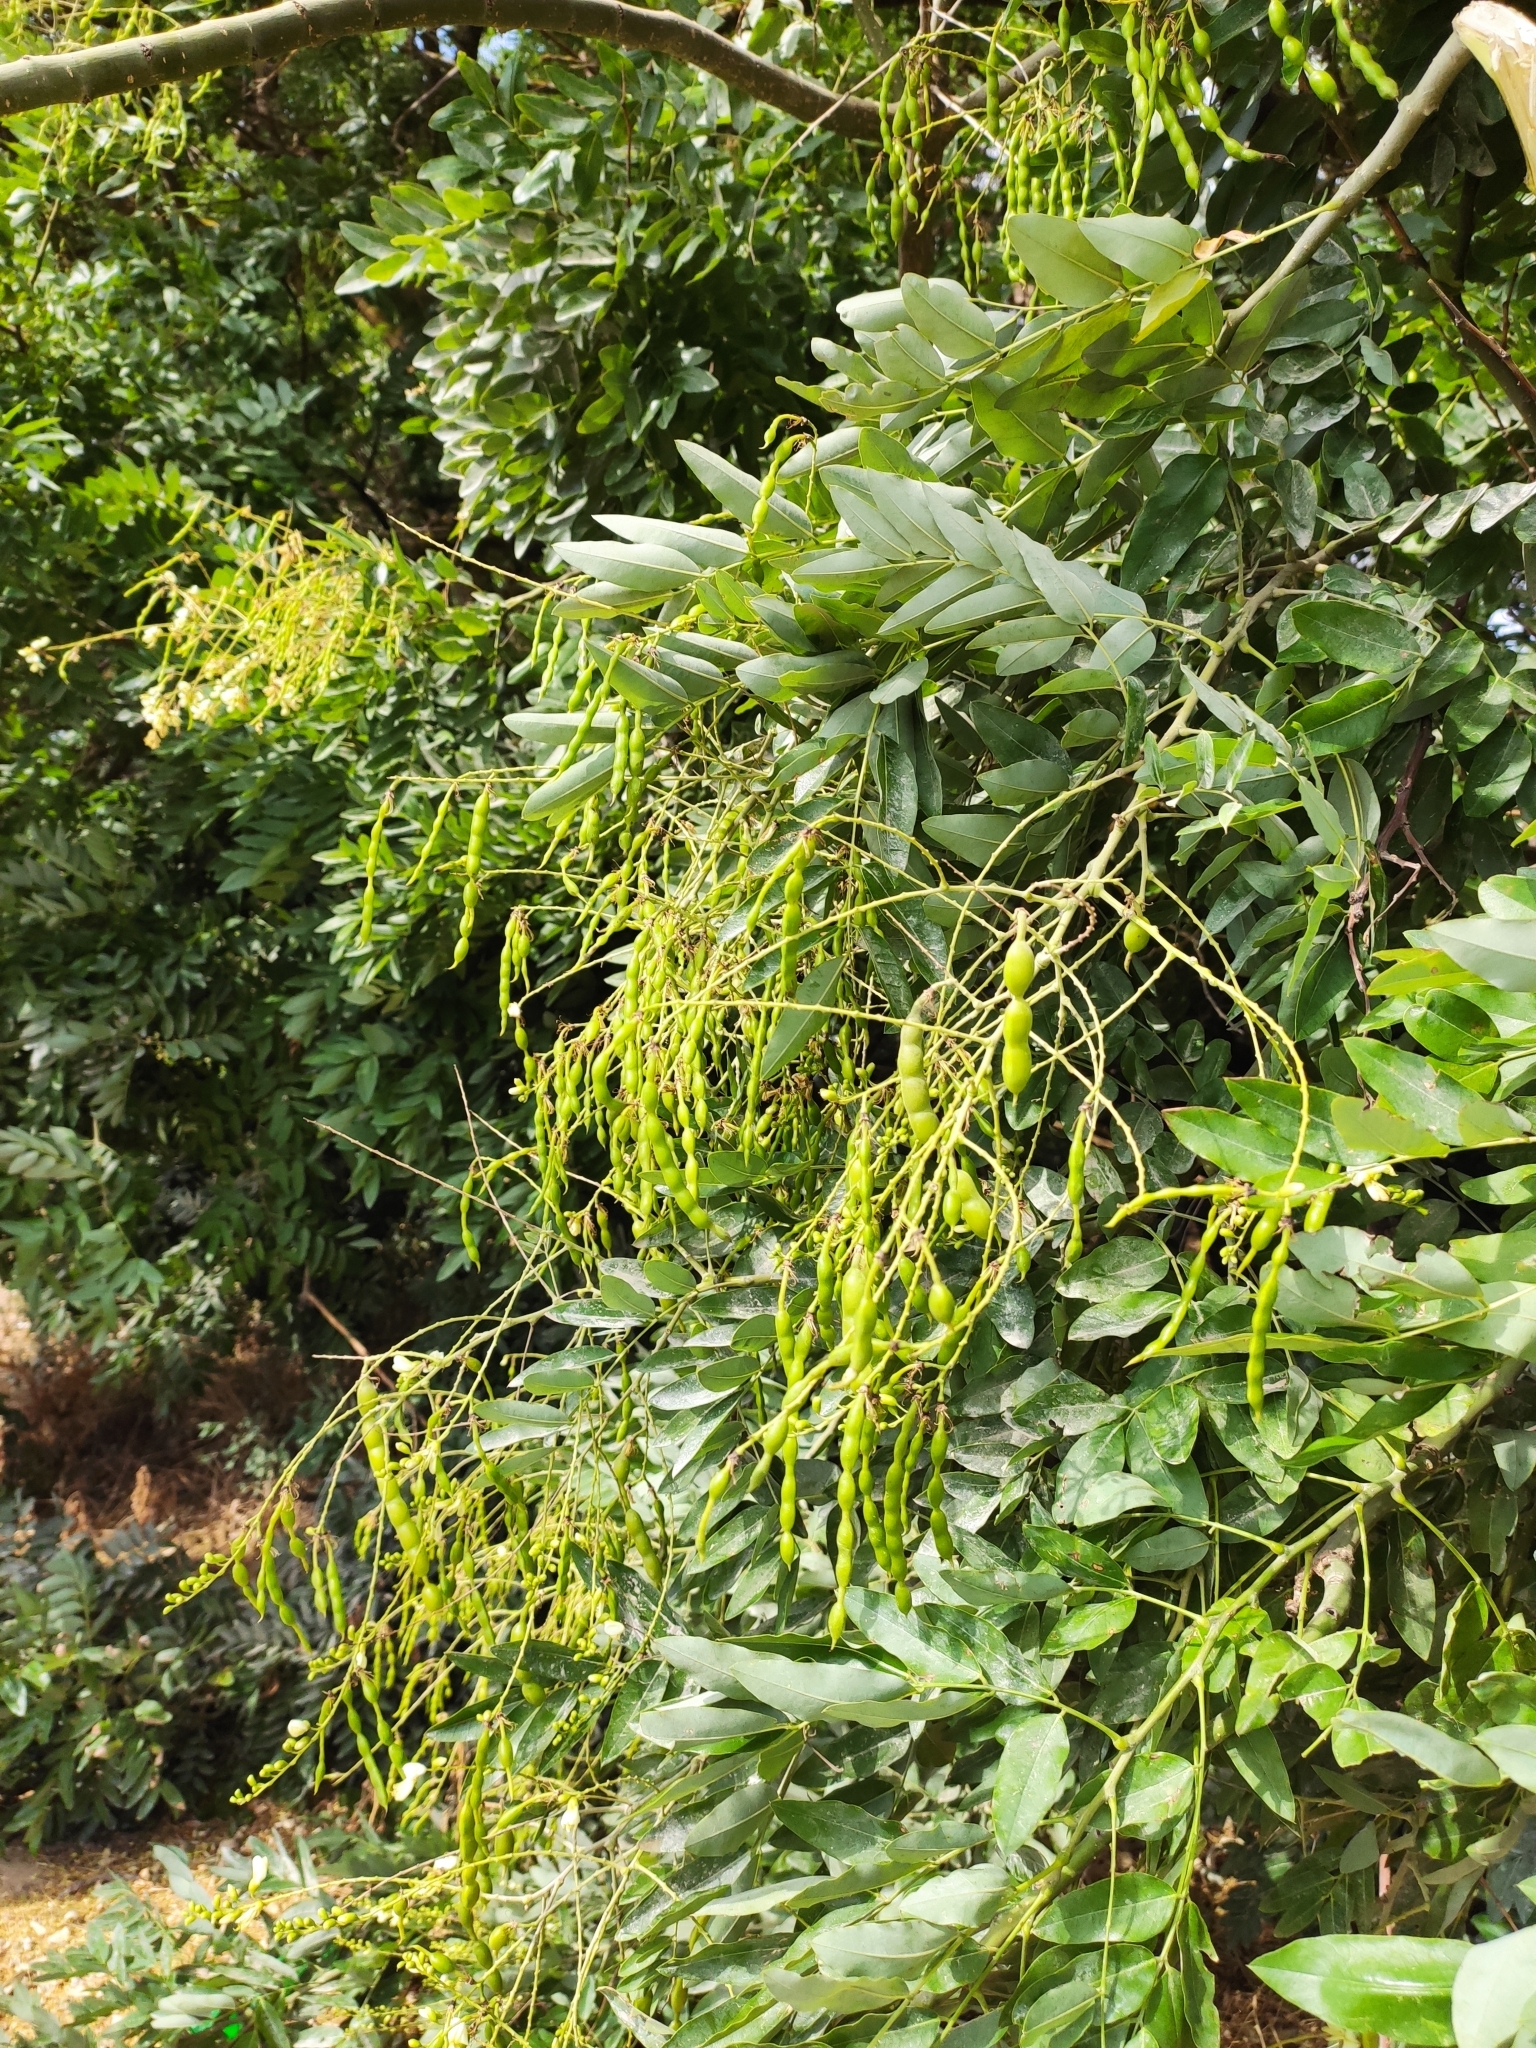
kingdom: Plantae
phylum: Tracheophyta
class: Magnoliopsida
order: Fabales
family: Fabaceae
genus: Styphnolobium
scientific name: Styphnolobium japonicum
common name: Chinese scholartree
